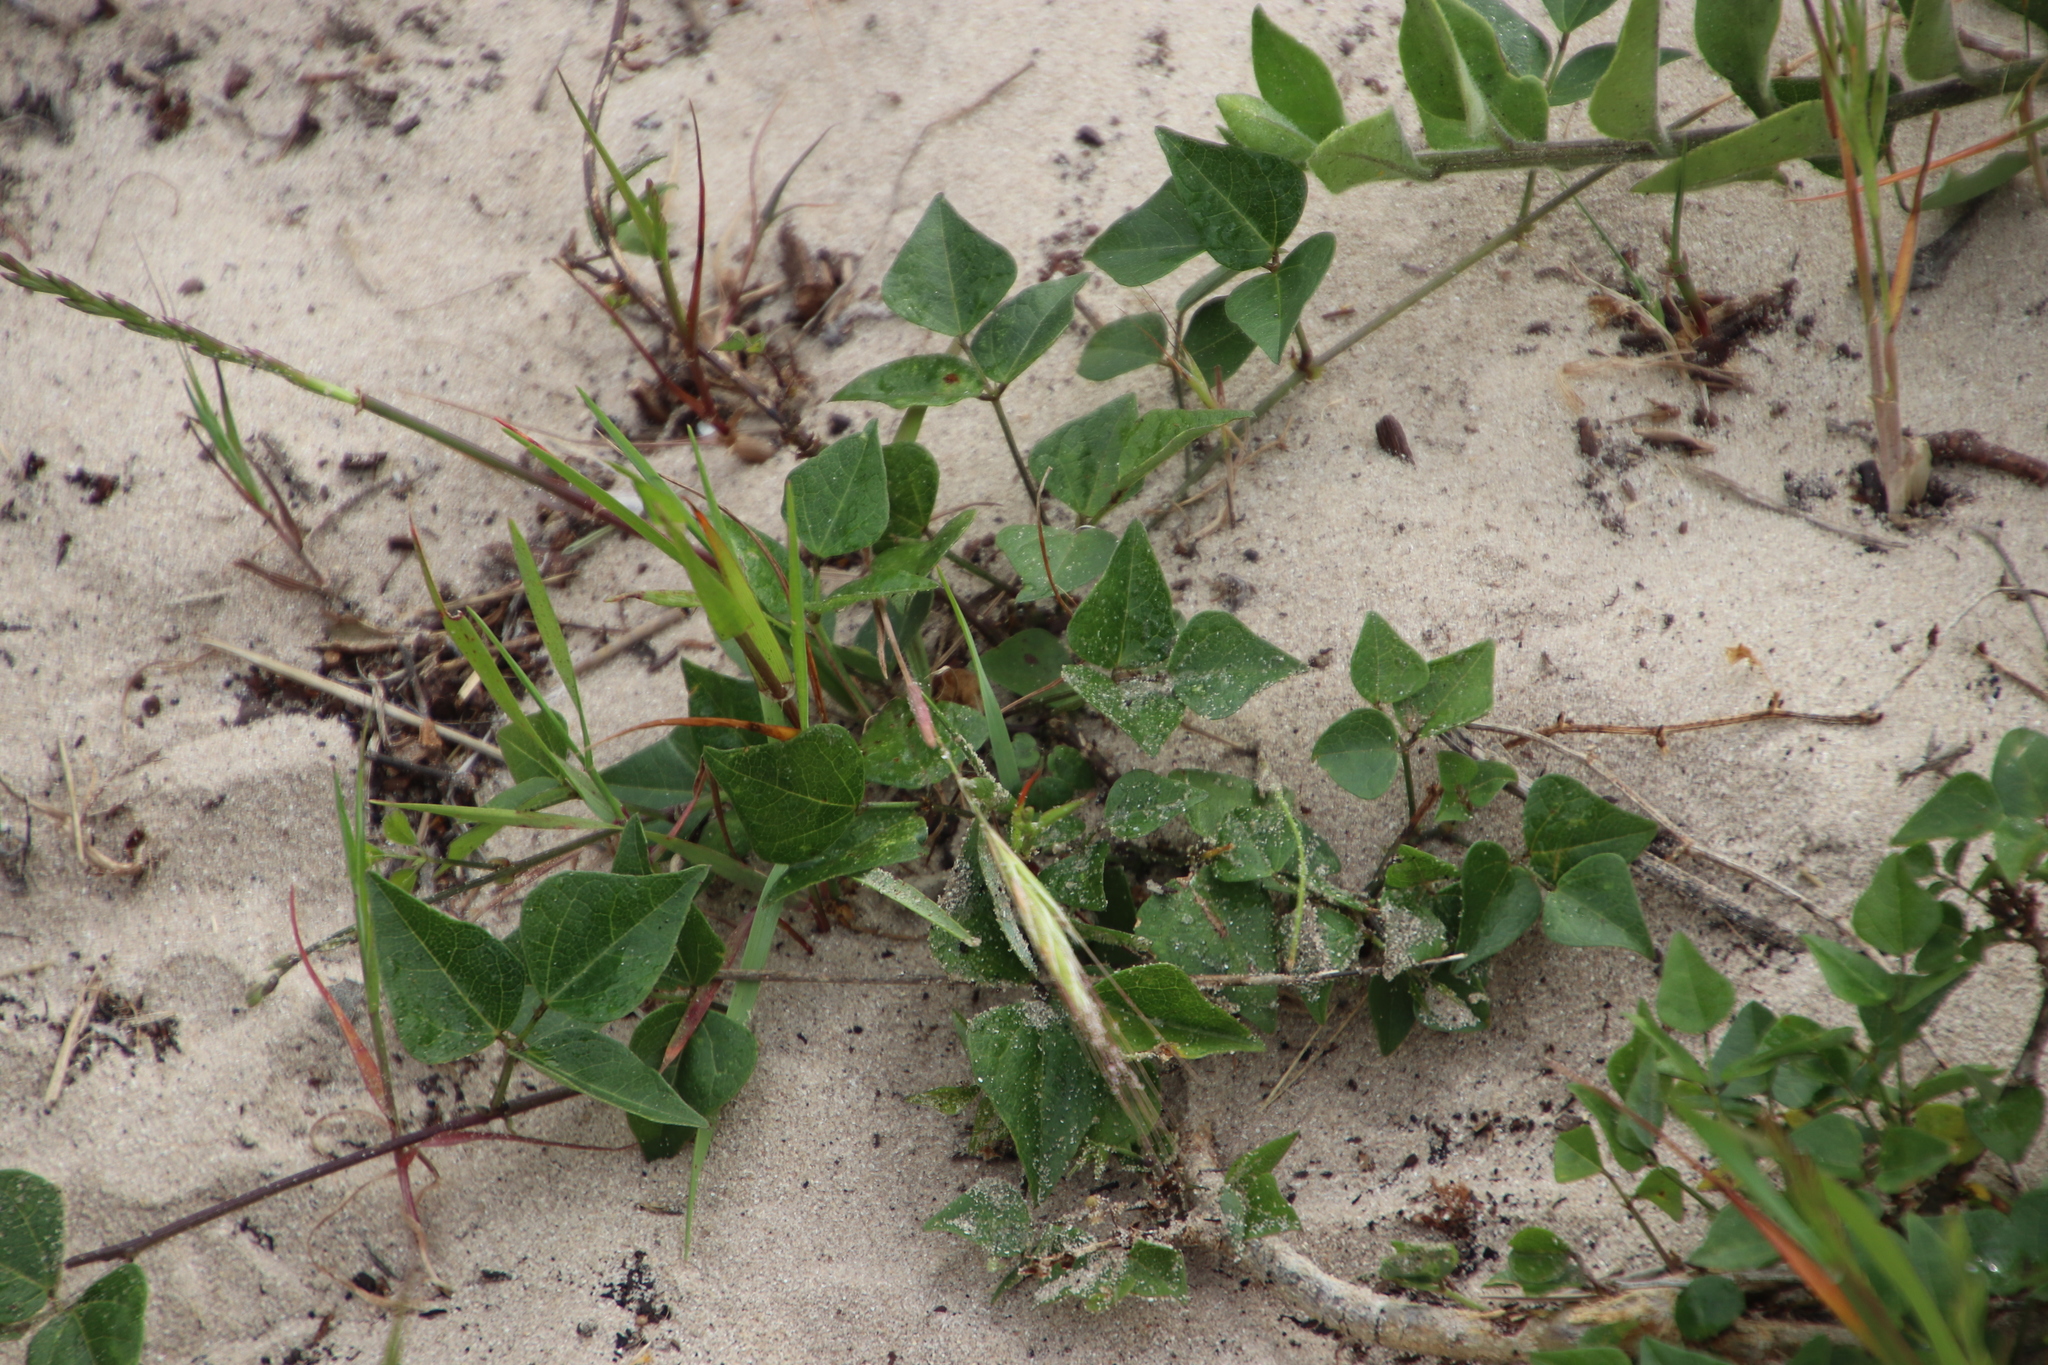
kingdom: Plantae
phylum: Tracheophyta
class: Magnoliopsida
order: Fabales
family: Fabaceae
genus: Dipogon
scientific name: Dipogon lignosus
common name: Okie bean
